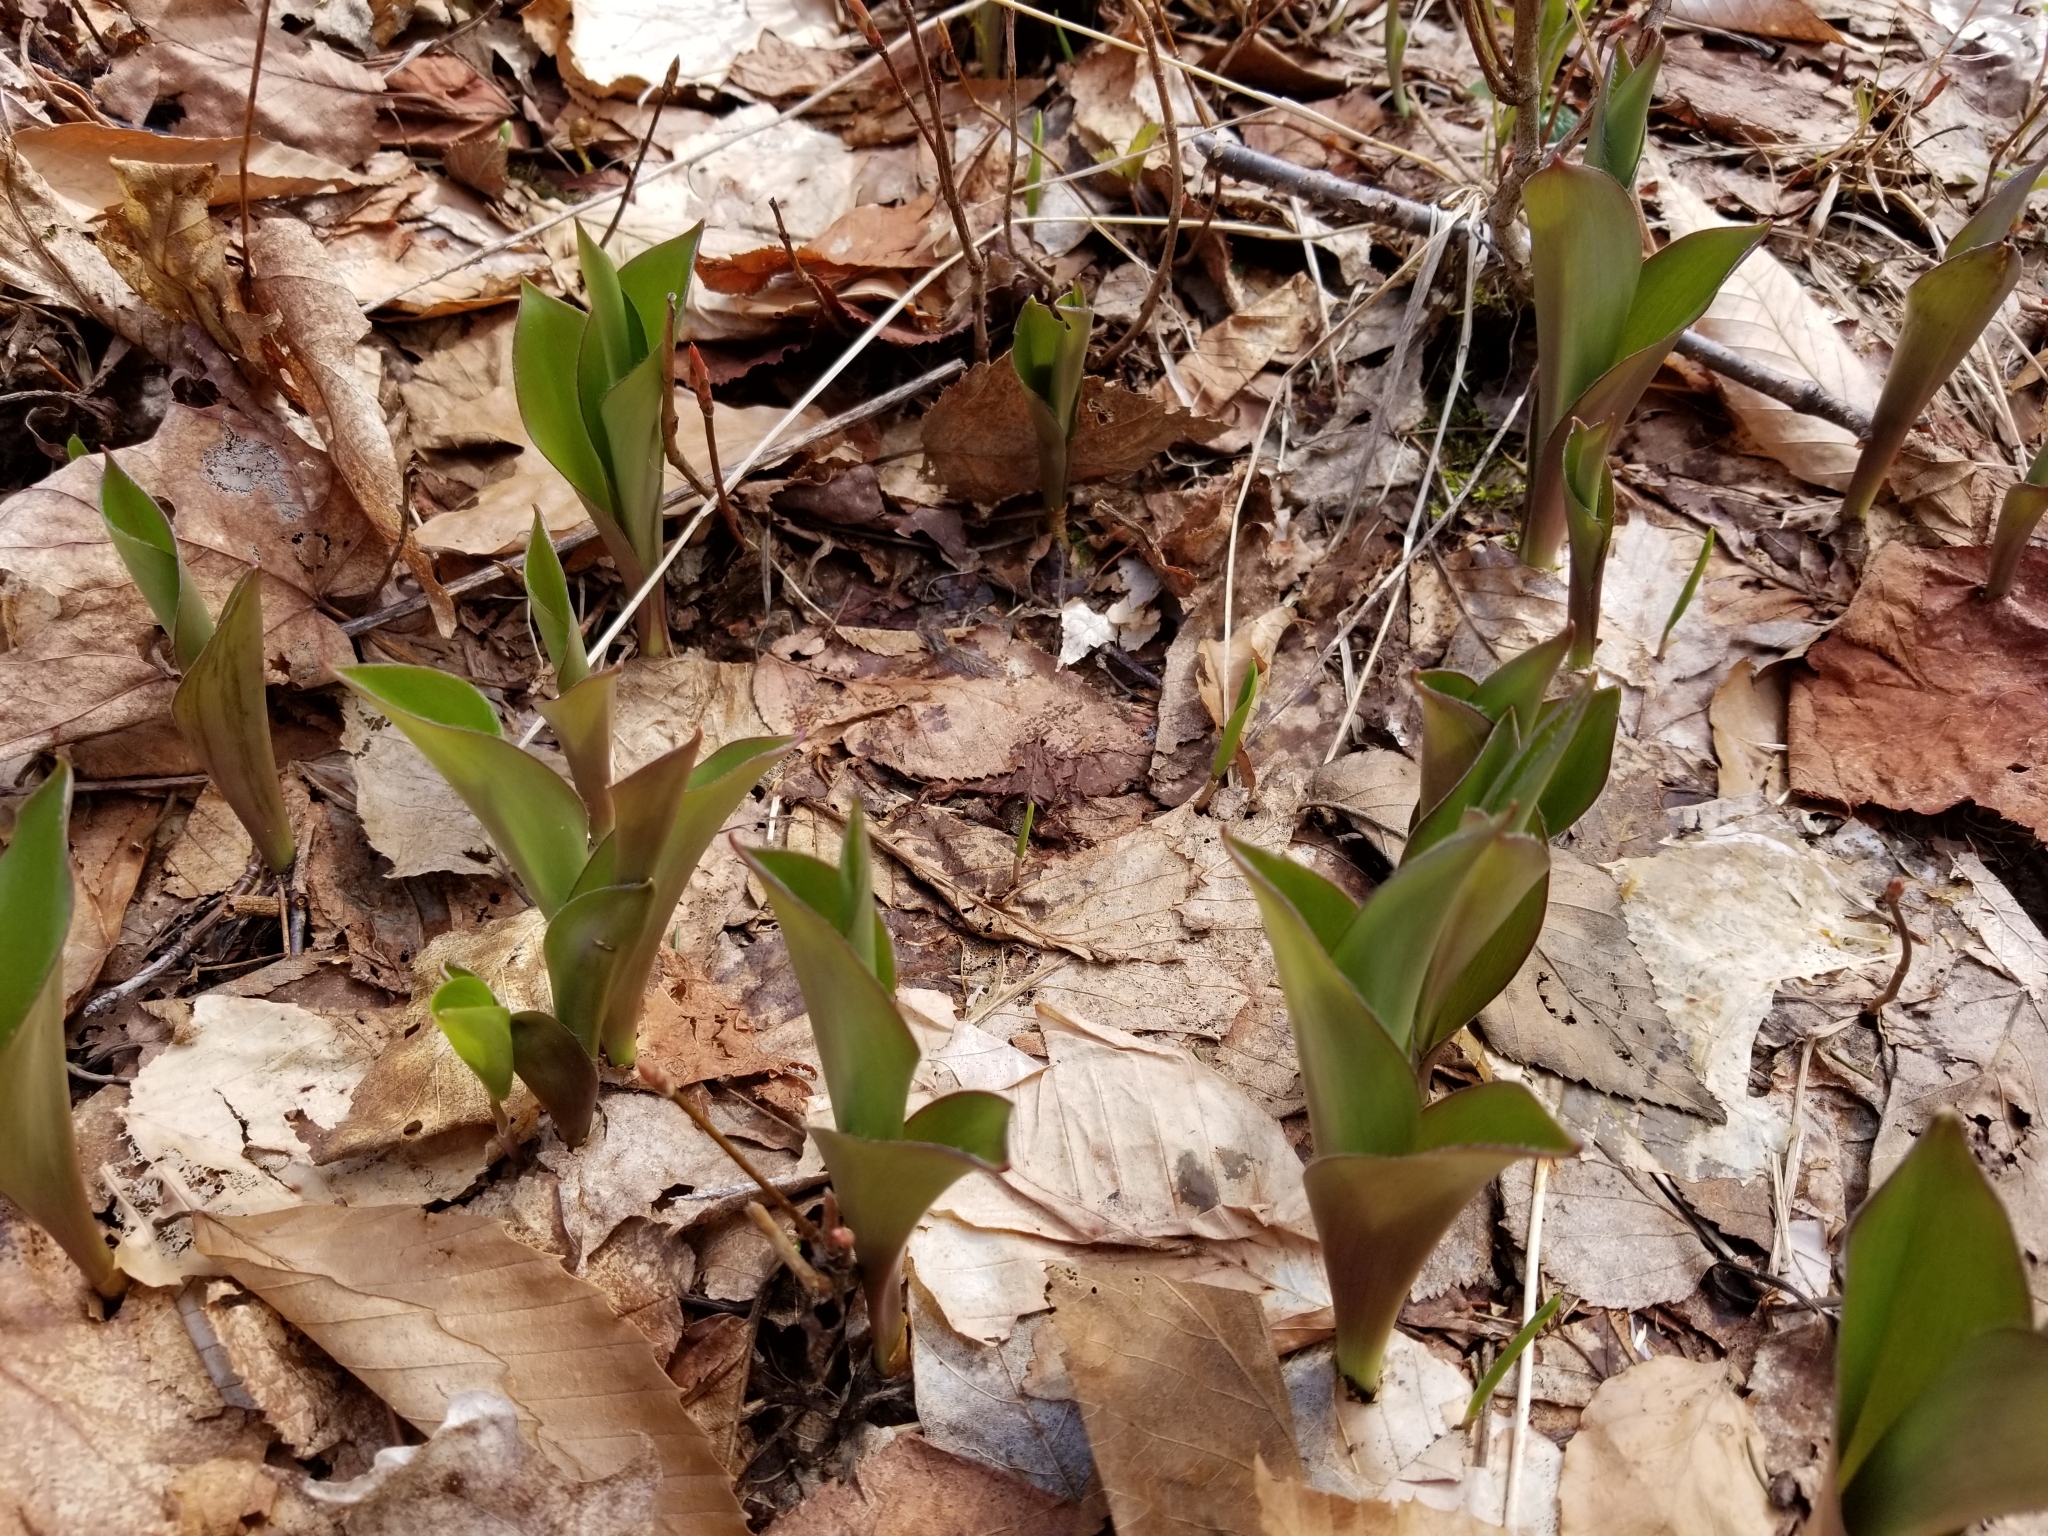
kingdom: Plantae
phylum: Tracheophyta
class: Liliopsida
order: Liliales
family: Liliaceae
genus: Clintonia
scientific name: Clintonia borealis
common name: Yellow clintonia
